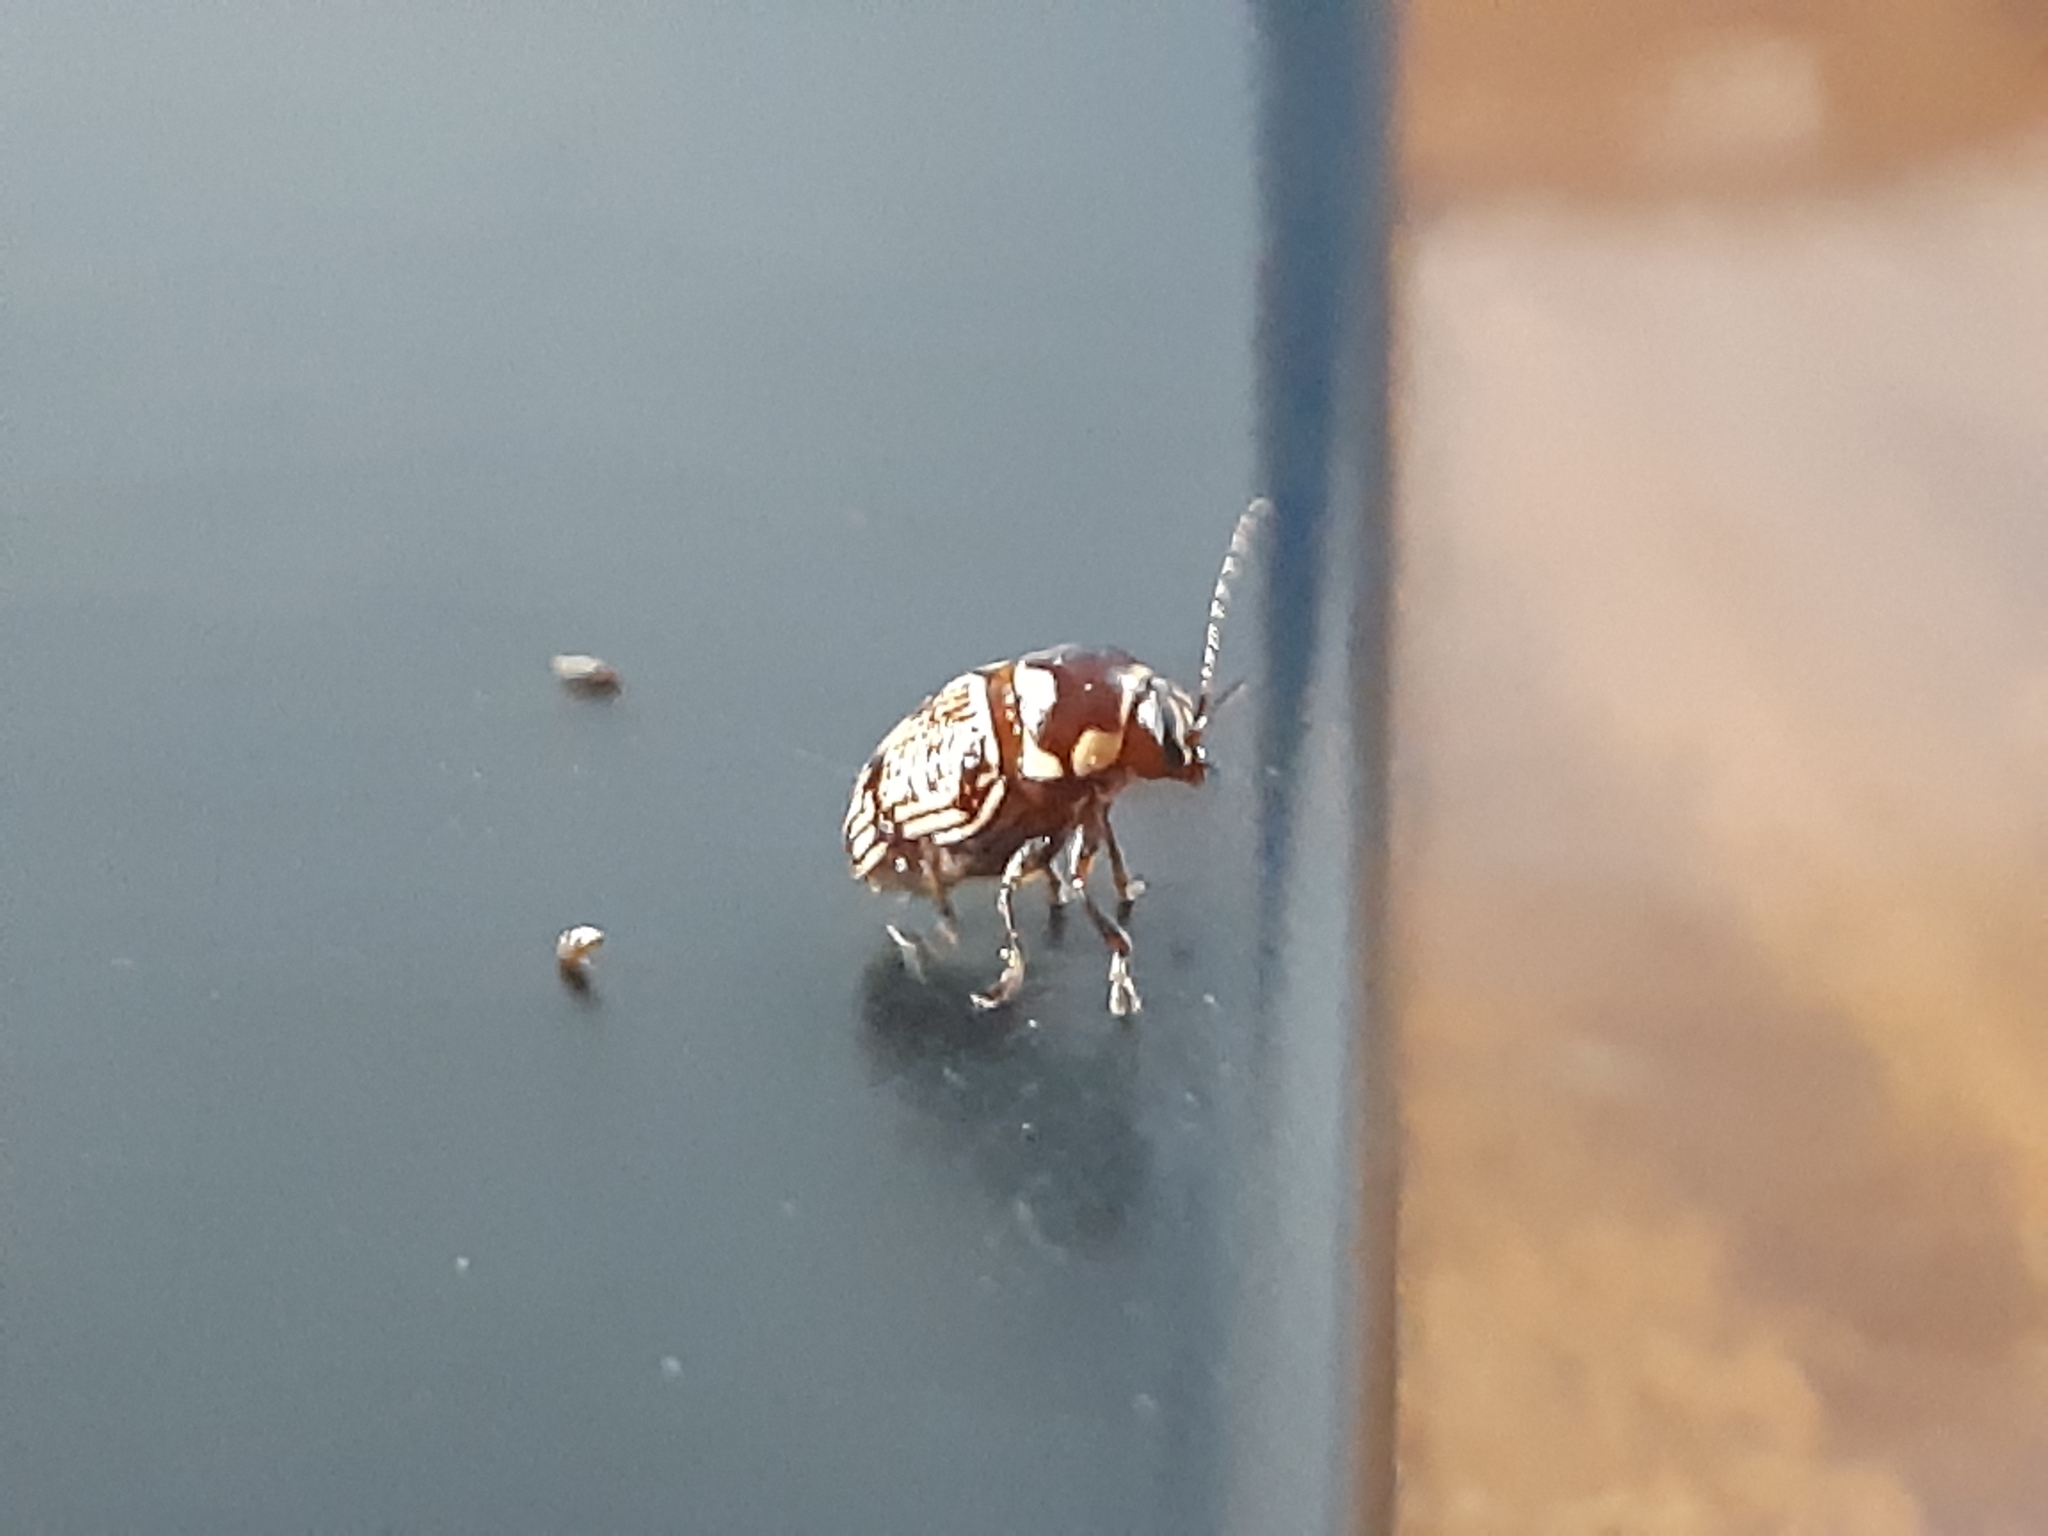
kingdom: Animalia
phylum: Arthropoda
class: Insecta
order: Coleoptera
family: Chrysomelidae
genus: Cryptocephalus
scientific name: Cryptocephalus irroratus
